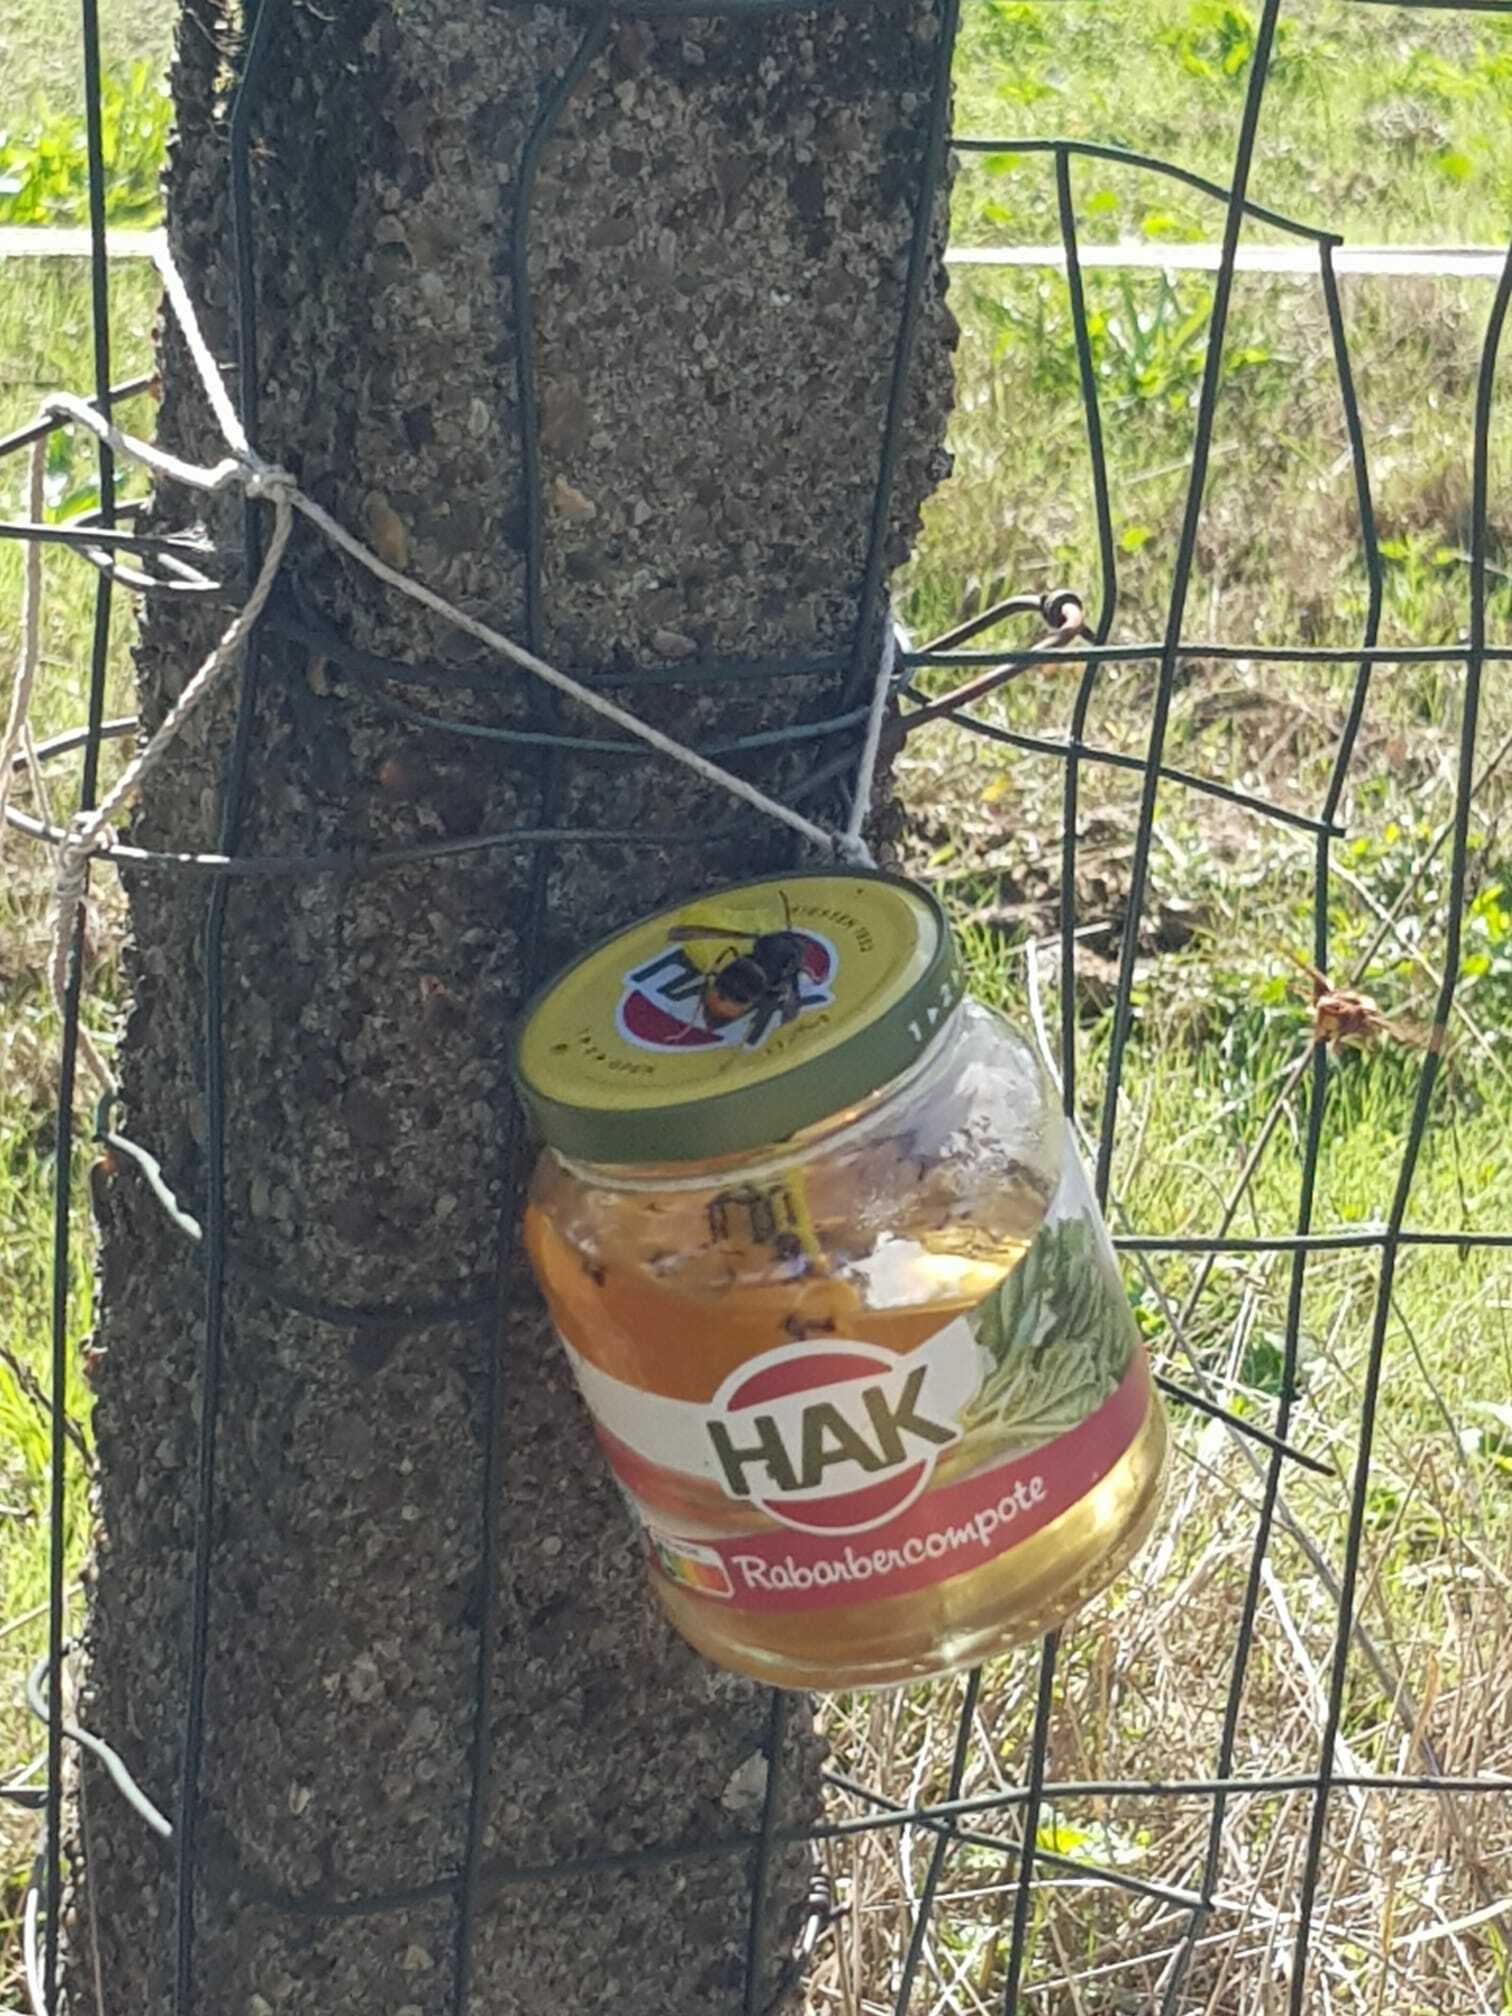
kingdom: Animalia
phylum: Arthropoda
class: Insecta
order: Hymenoptera
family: Vespidae
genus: Vespa
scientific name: Vespa velutina
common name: Asian hornet
